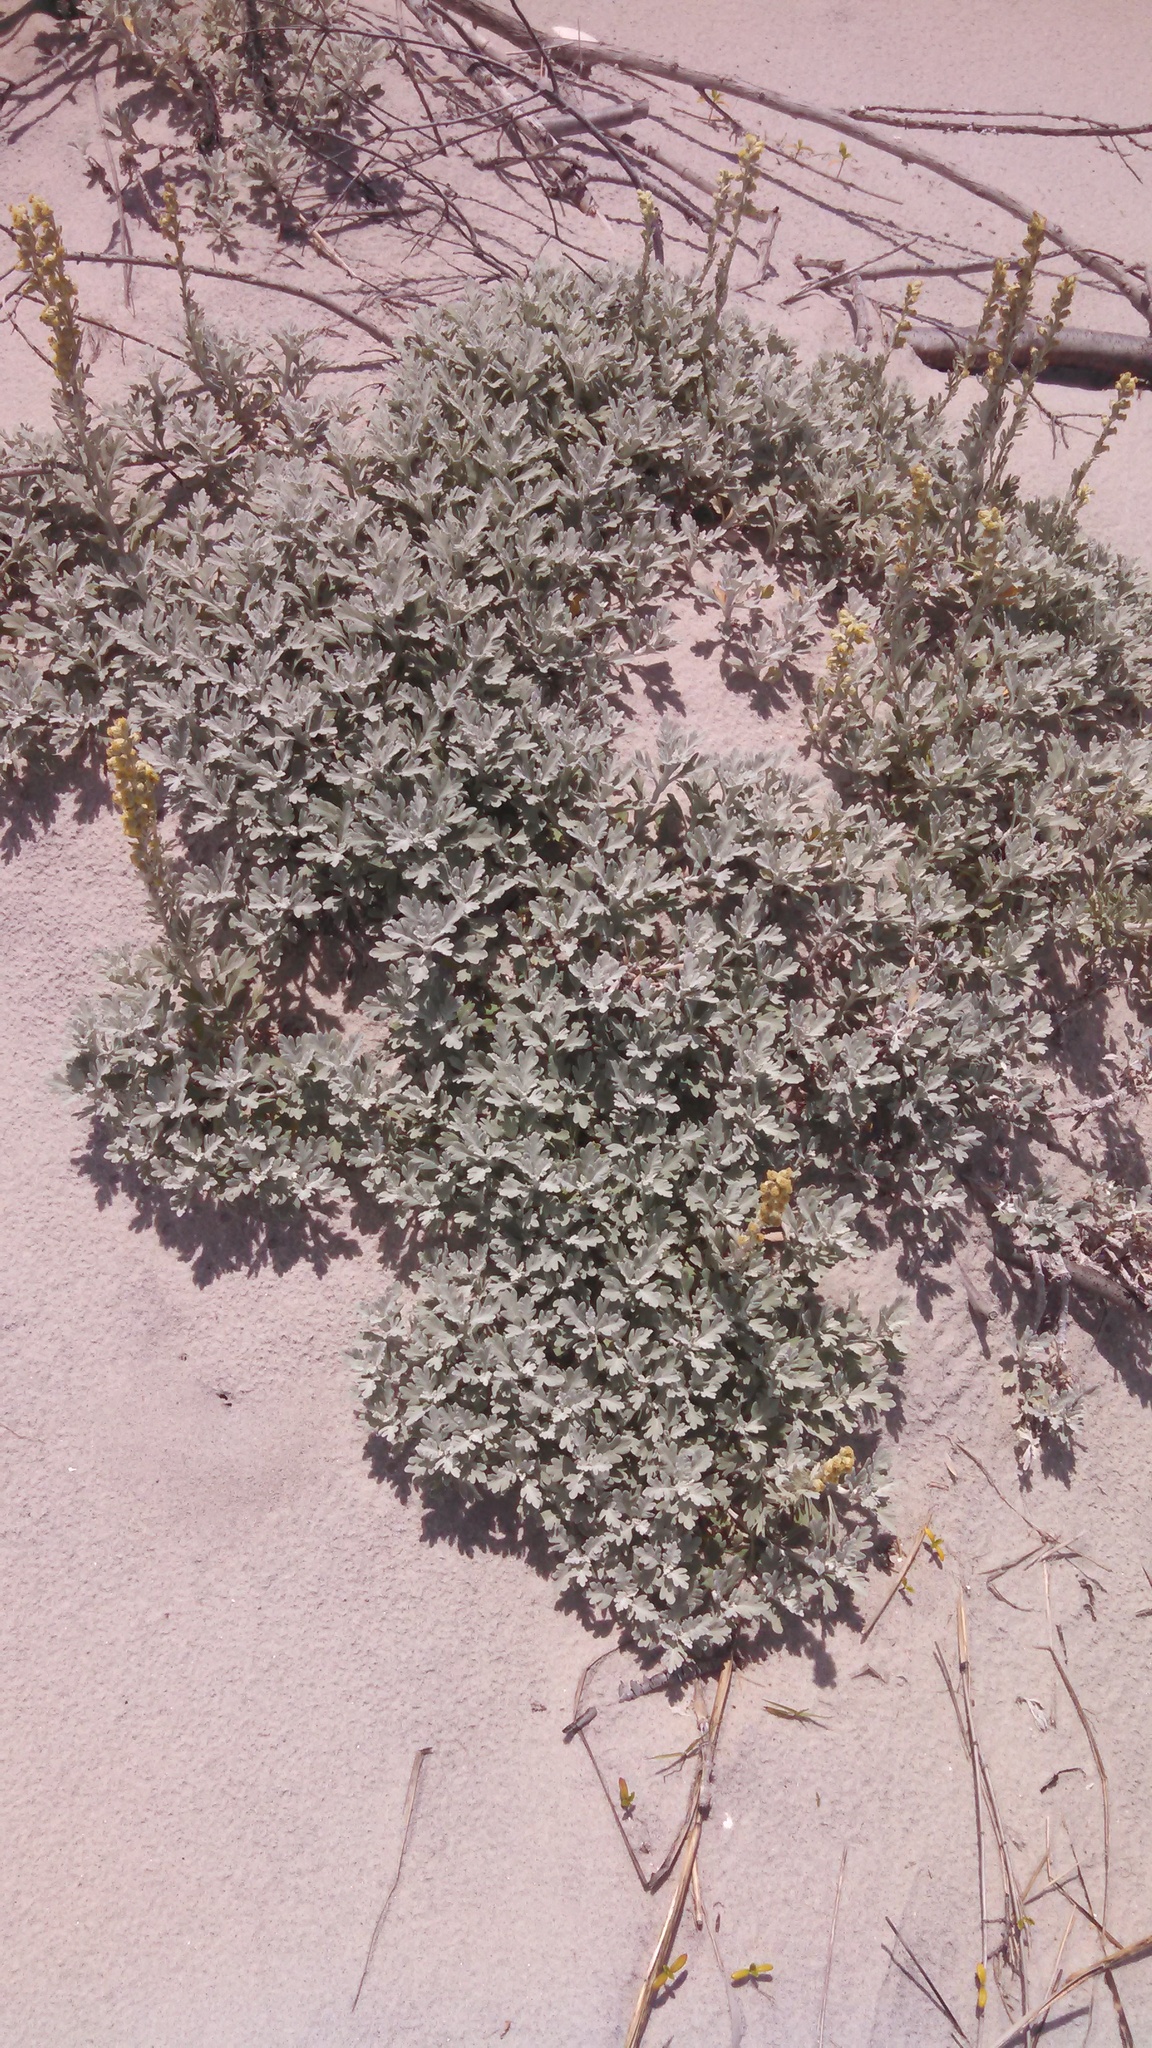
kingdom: Plantae
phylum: Tracheophyta
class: Magnoliopsida
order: Asterales
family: Asteraceae
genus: Artemisia
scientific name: Artemisia stelleriana
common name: Beach wormwood
